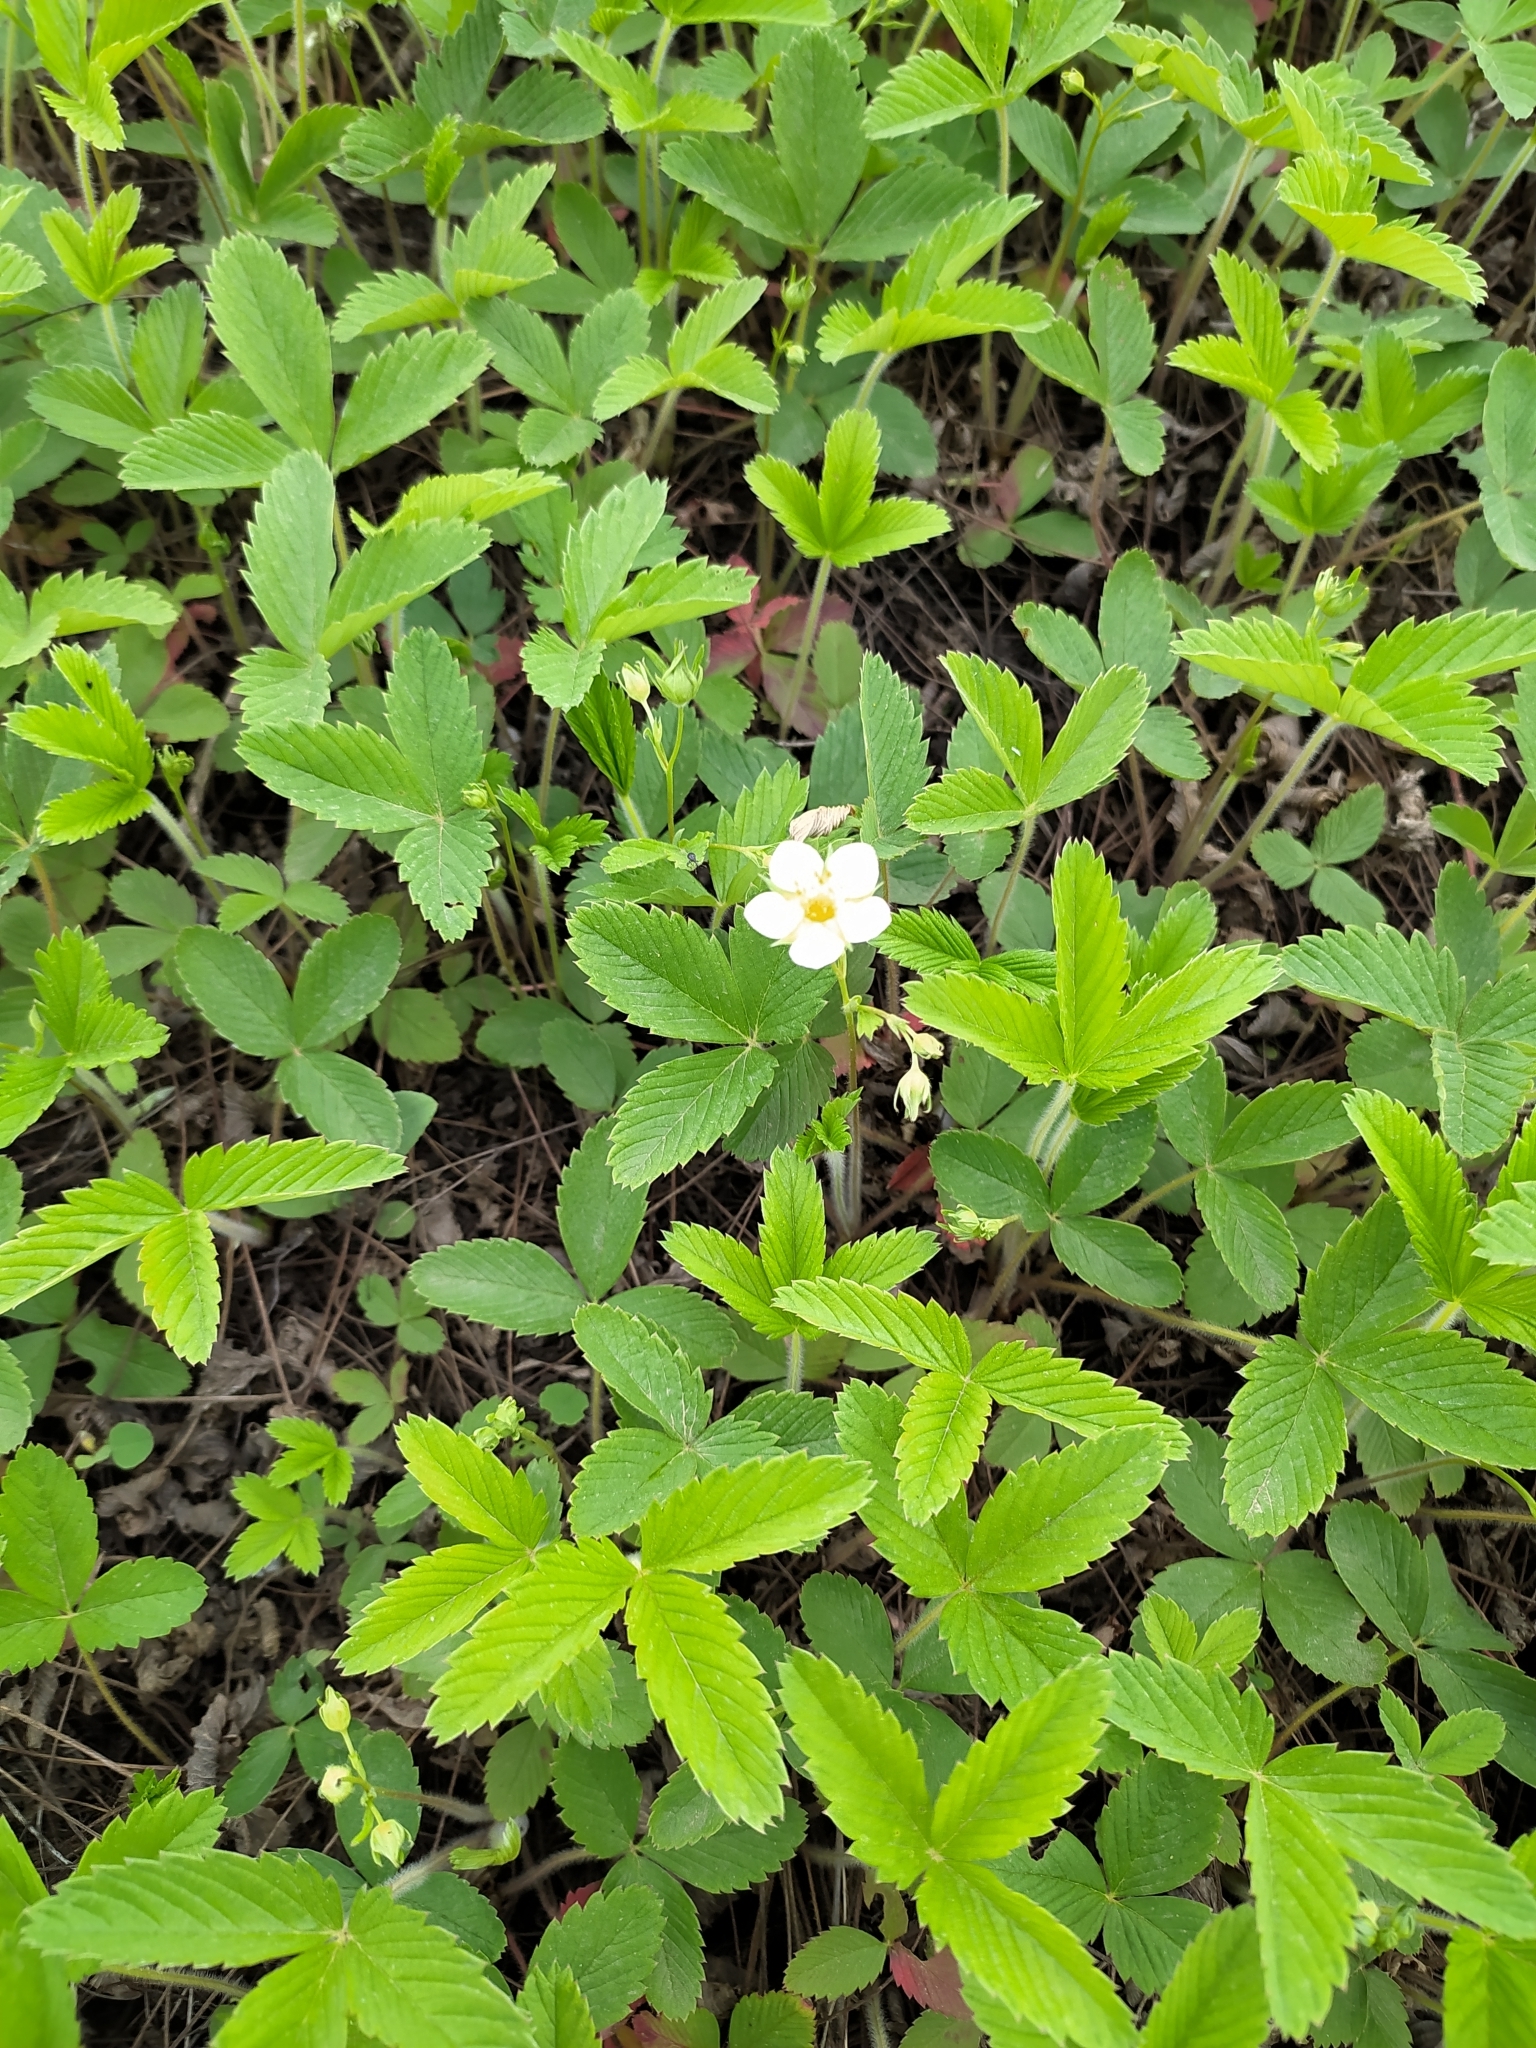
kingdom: Plantae
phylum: Tracheophyta
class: Magnoliopsida
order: Rosales
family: Rosaceae
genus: Fragaria
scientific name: Fragaria viridis
